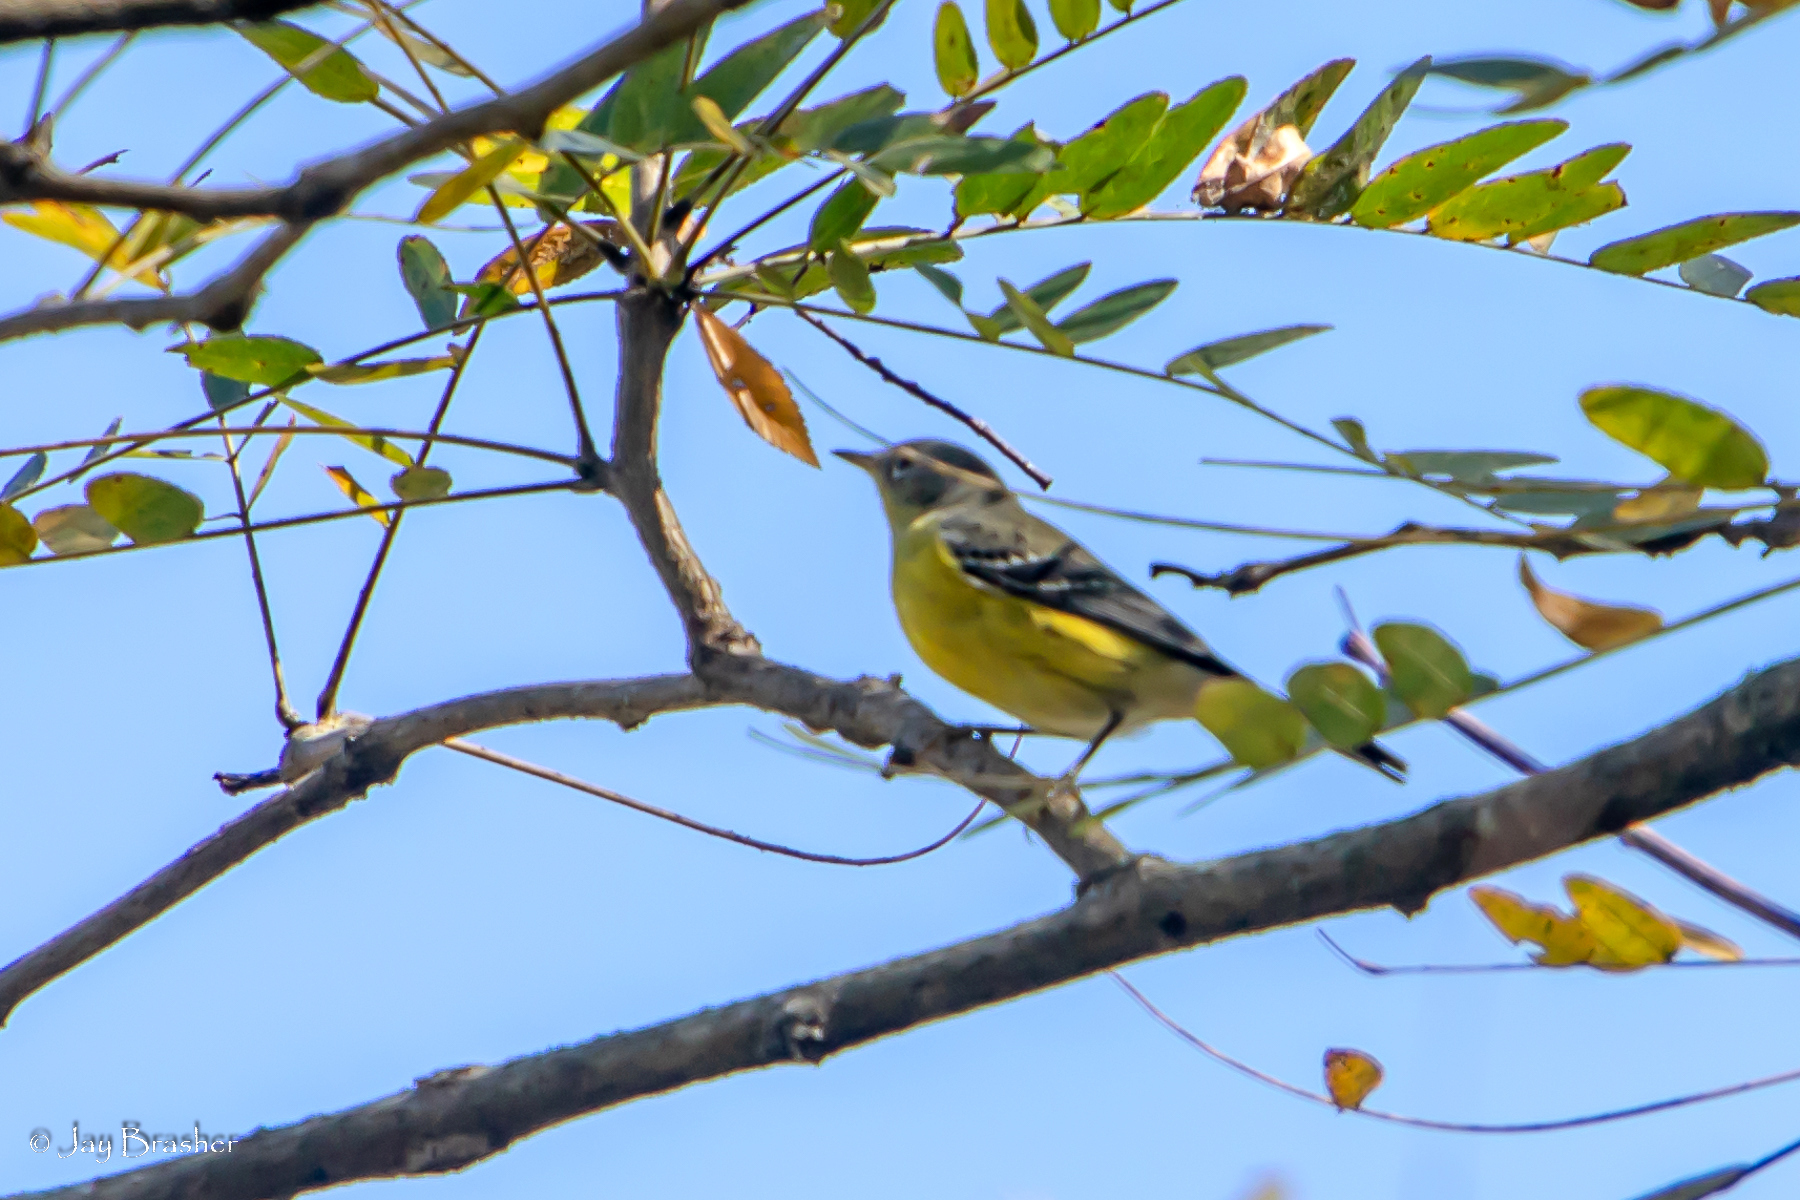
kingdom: Animalia
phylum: Chordata
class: Aves
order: Passeriformes
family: Parulidae
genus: Setophaga
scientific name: Setophaga magnolia
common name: Magnolia warbler
